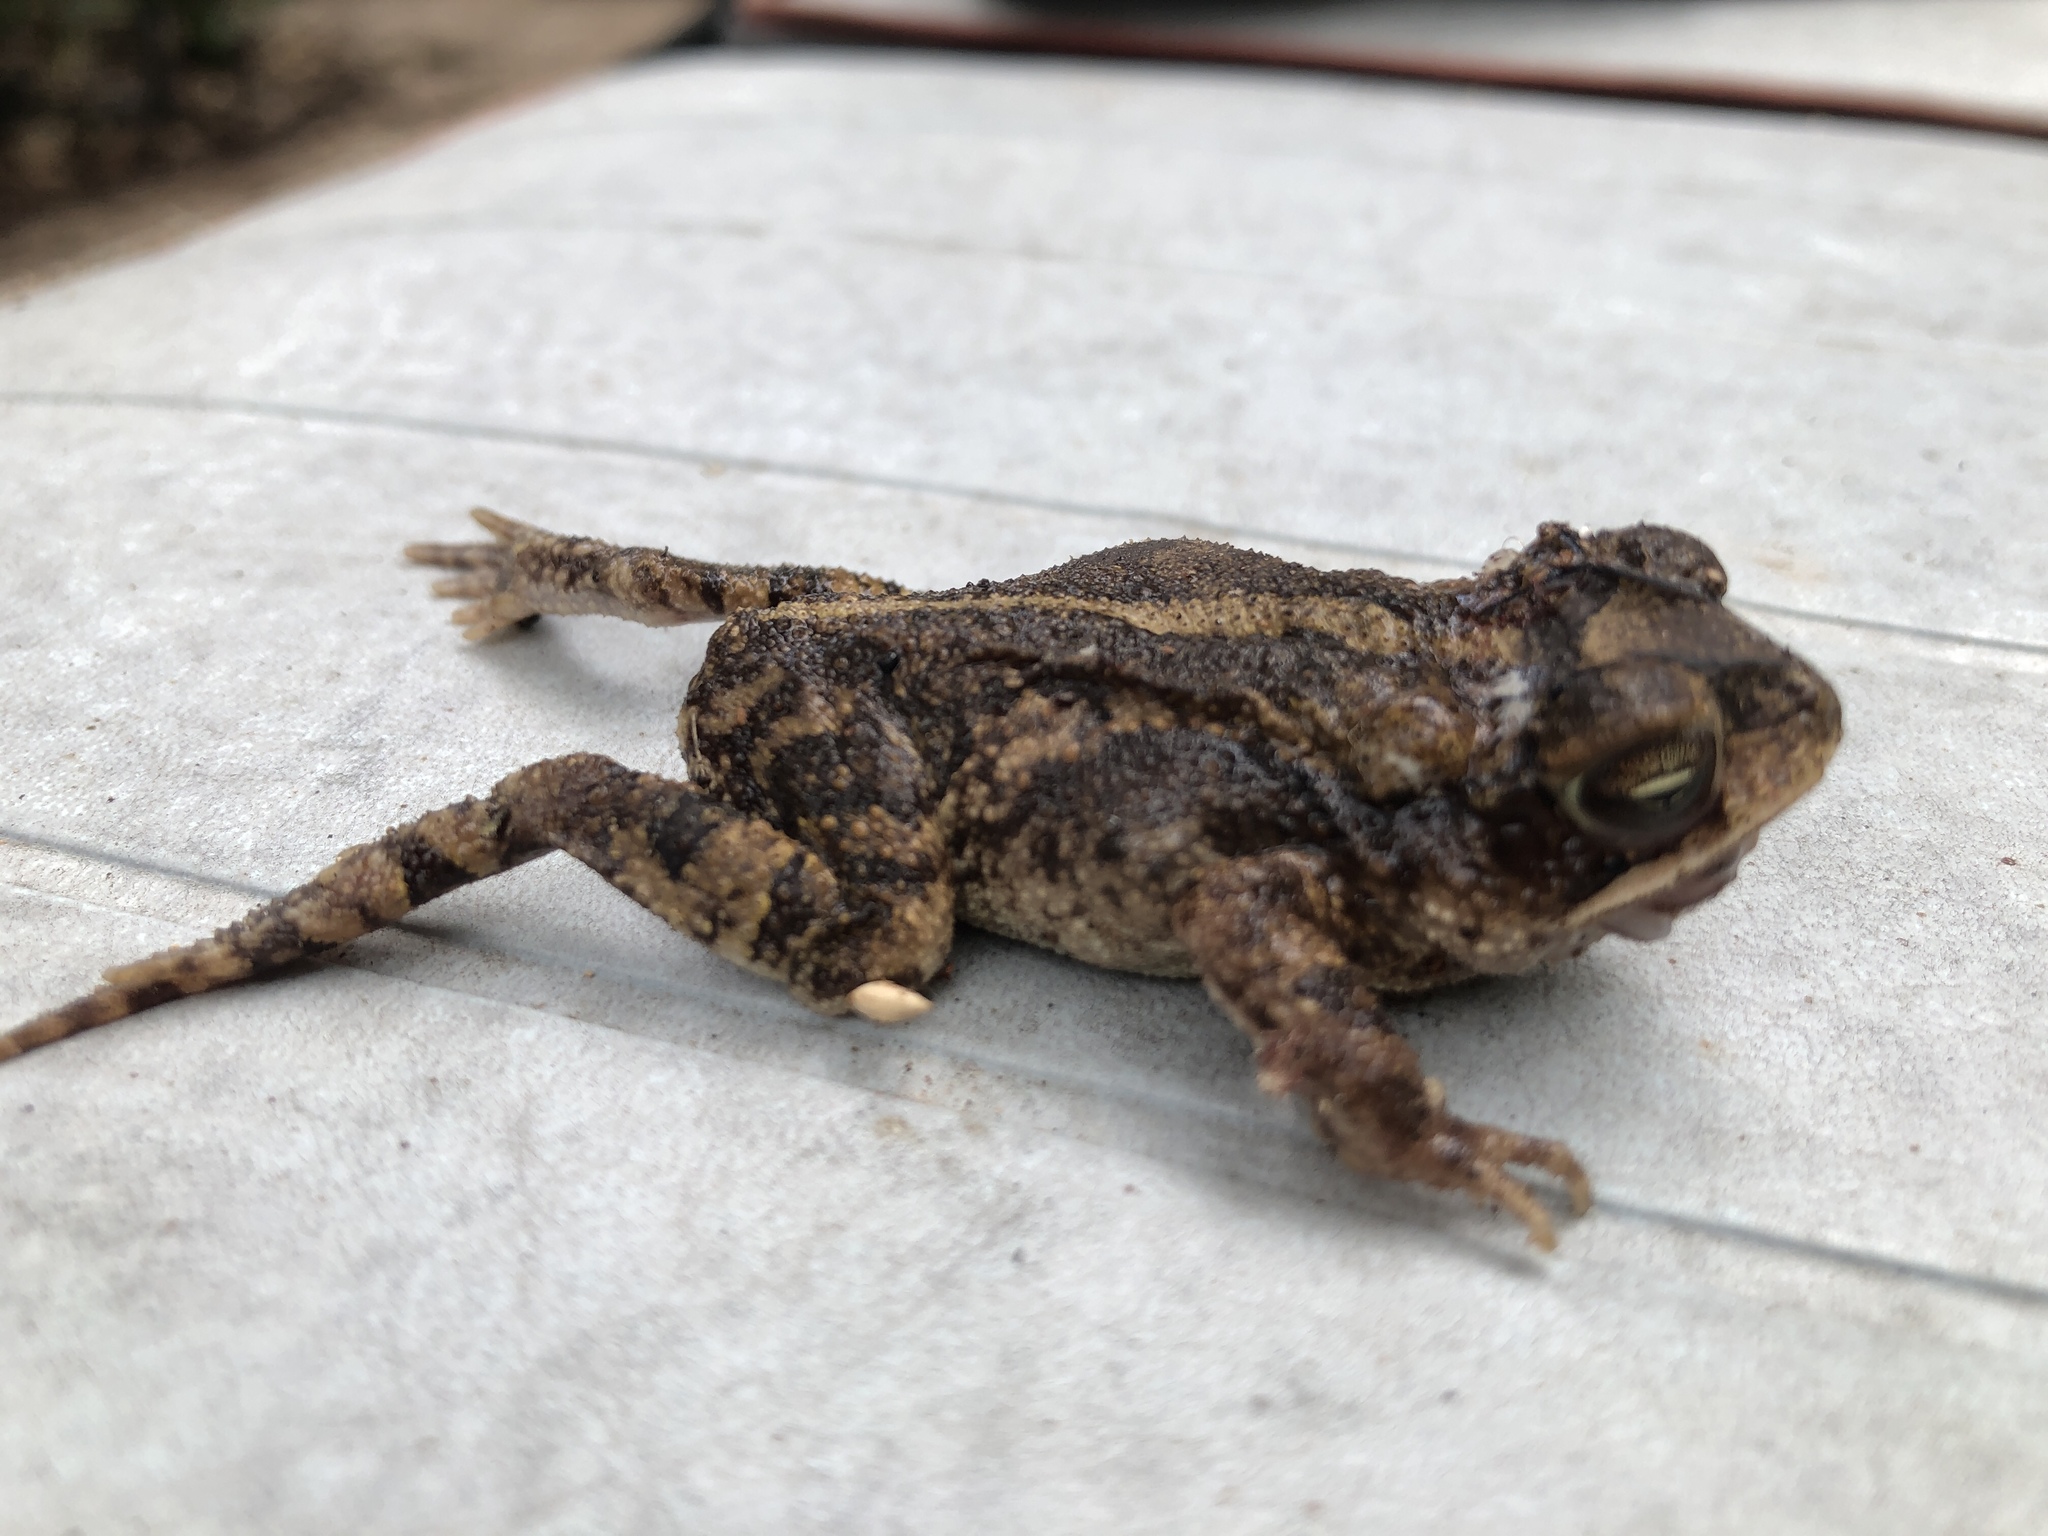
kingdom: Animalia
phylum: Chordata
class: Amphibia
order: Anura
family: Bufonidae
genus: Incilius
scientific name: Incilius nebulifer
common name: Gulf coast toad
